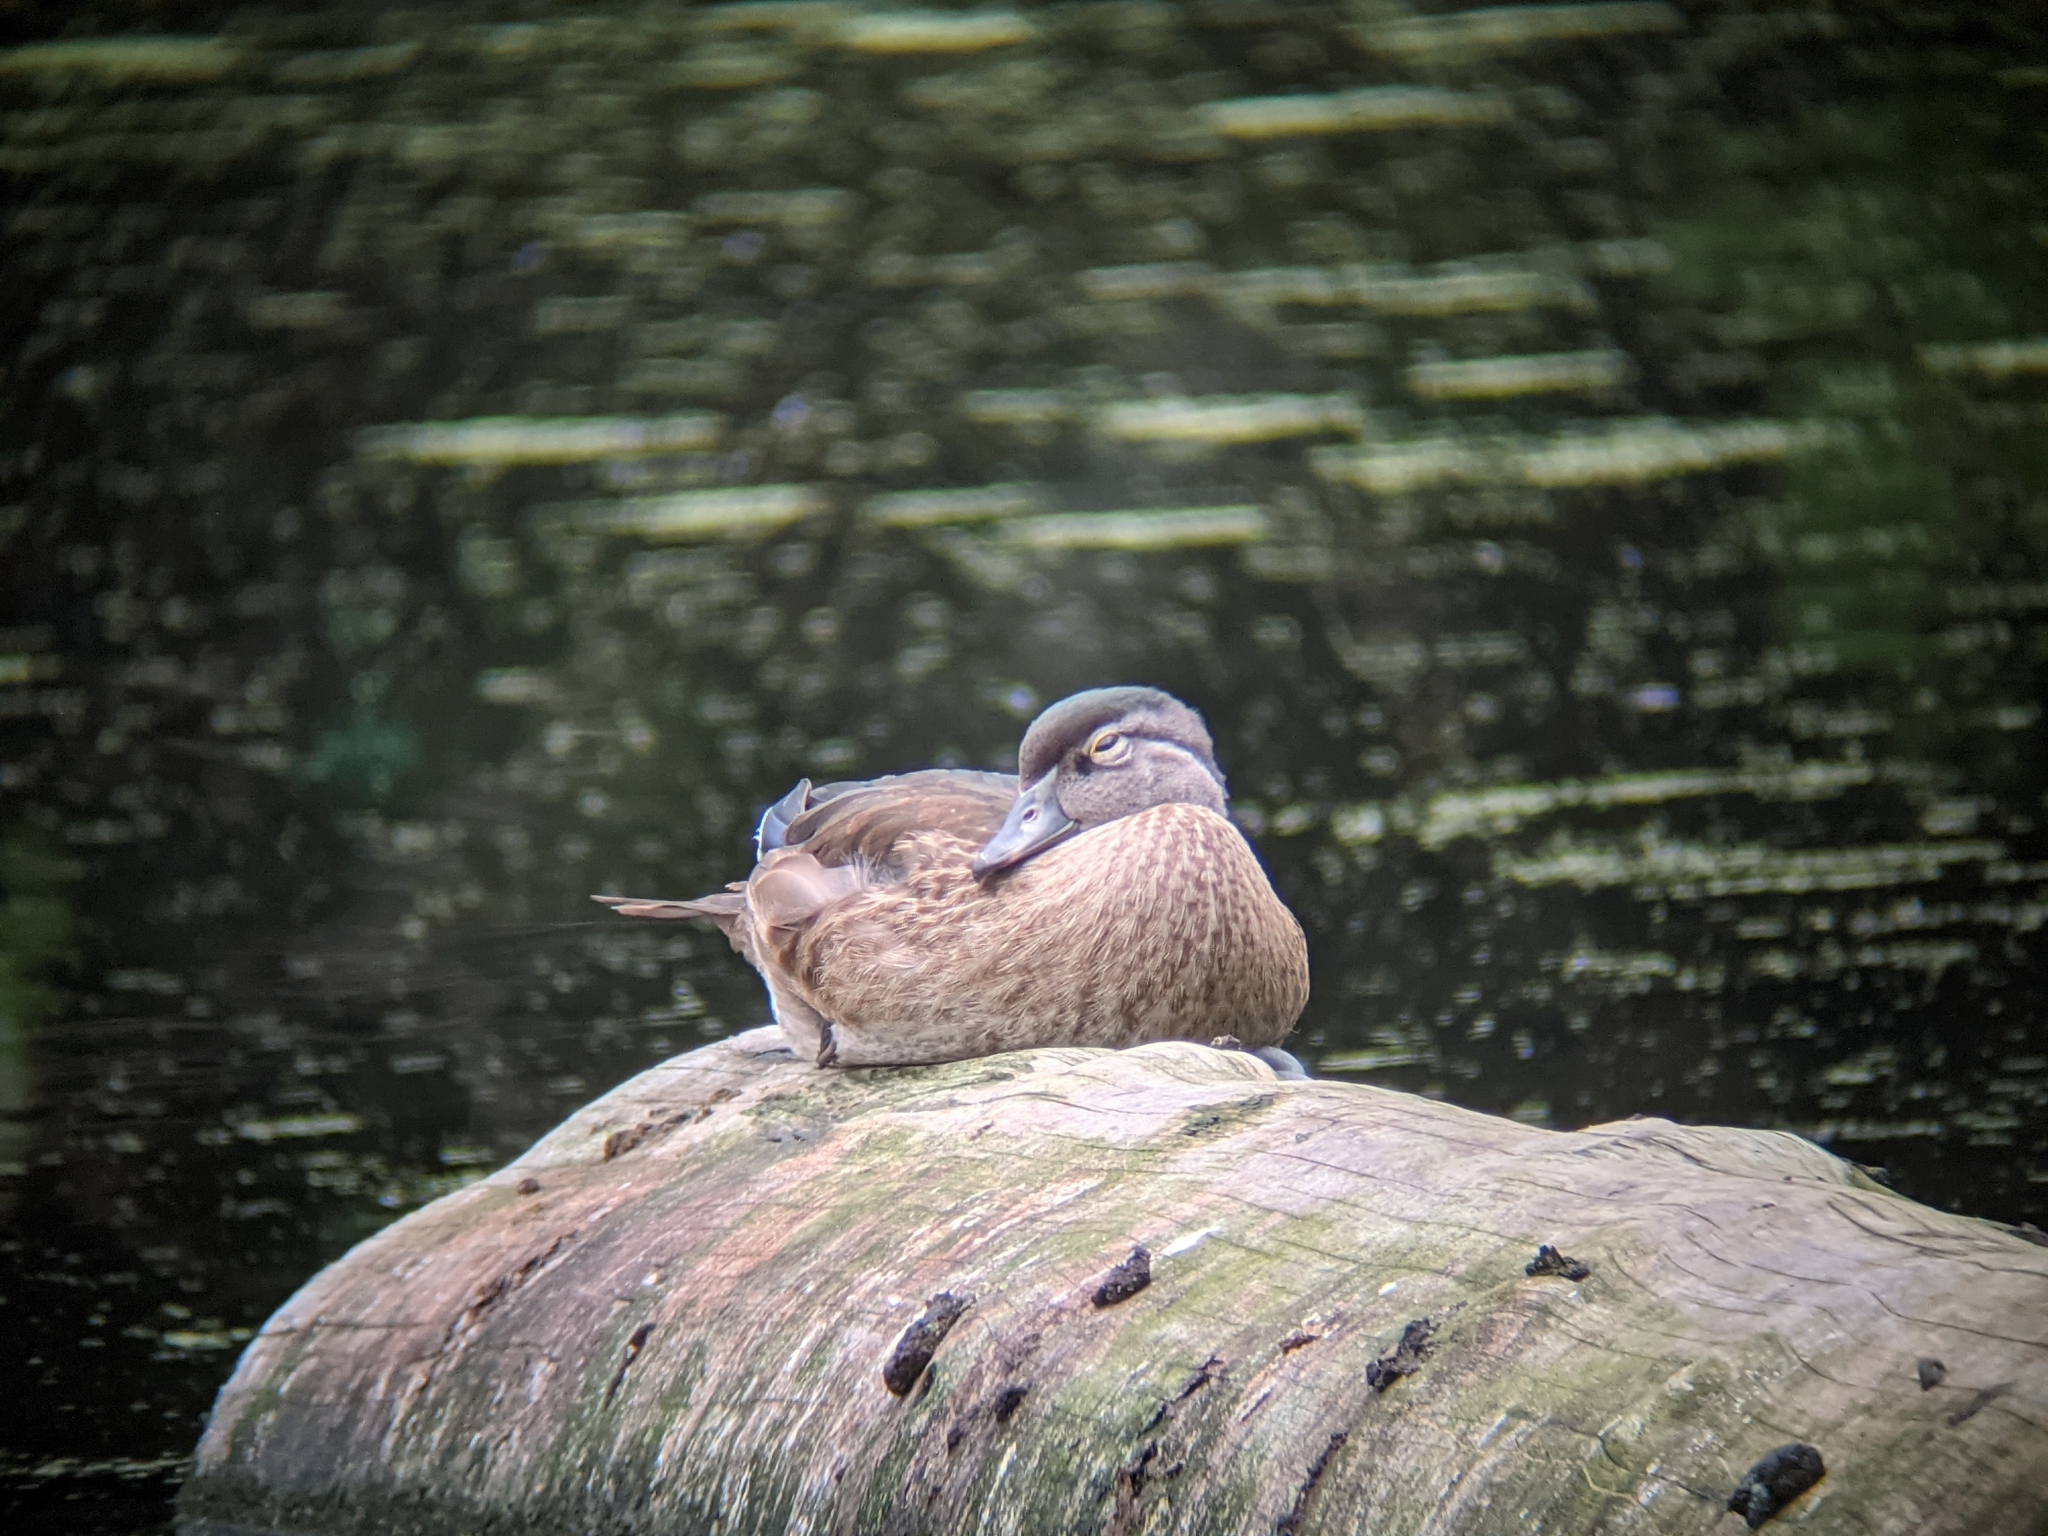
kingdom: Animalia
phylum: Chordata
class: Aves
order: Anseriformes
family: Anatidae
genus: Aix
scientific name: Aix sponsa
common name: Wood duck
